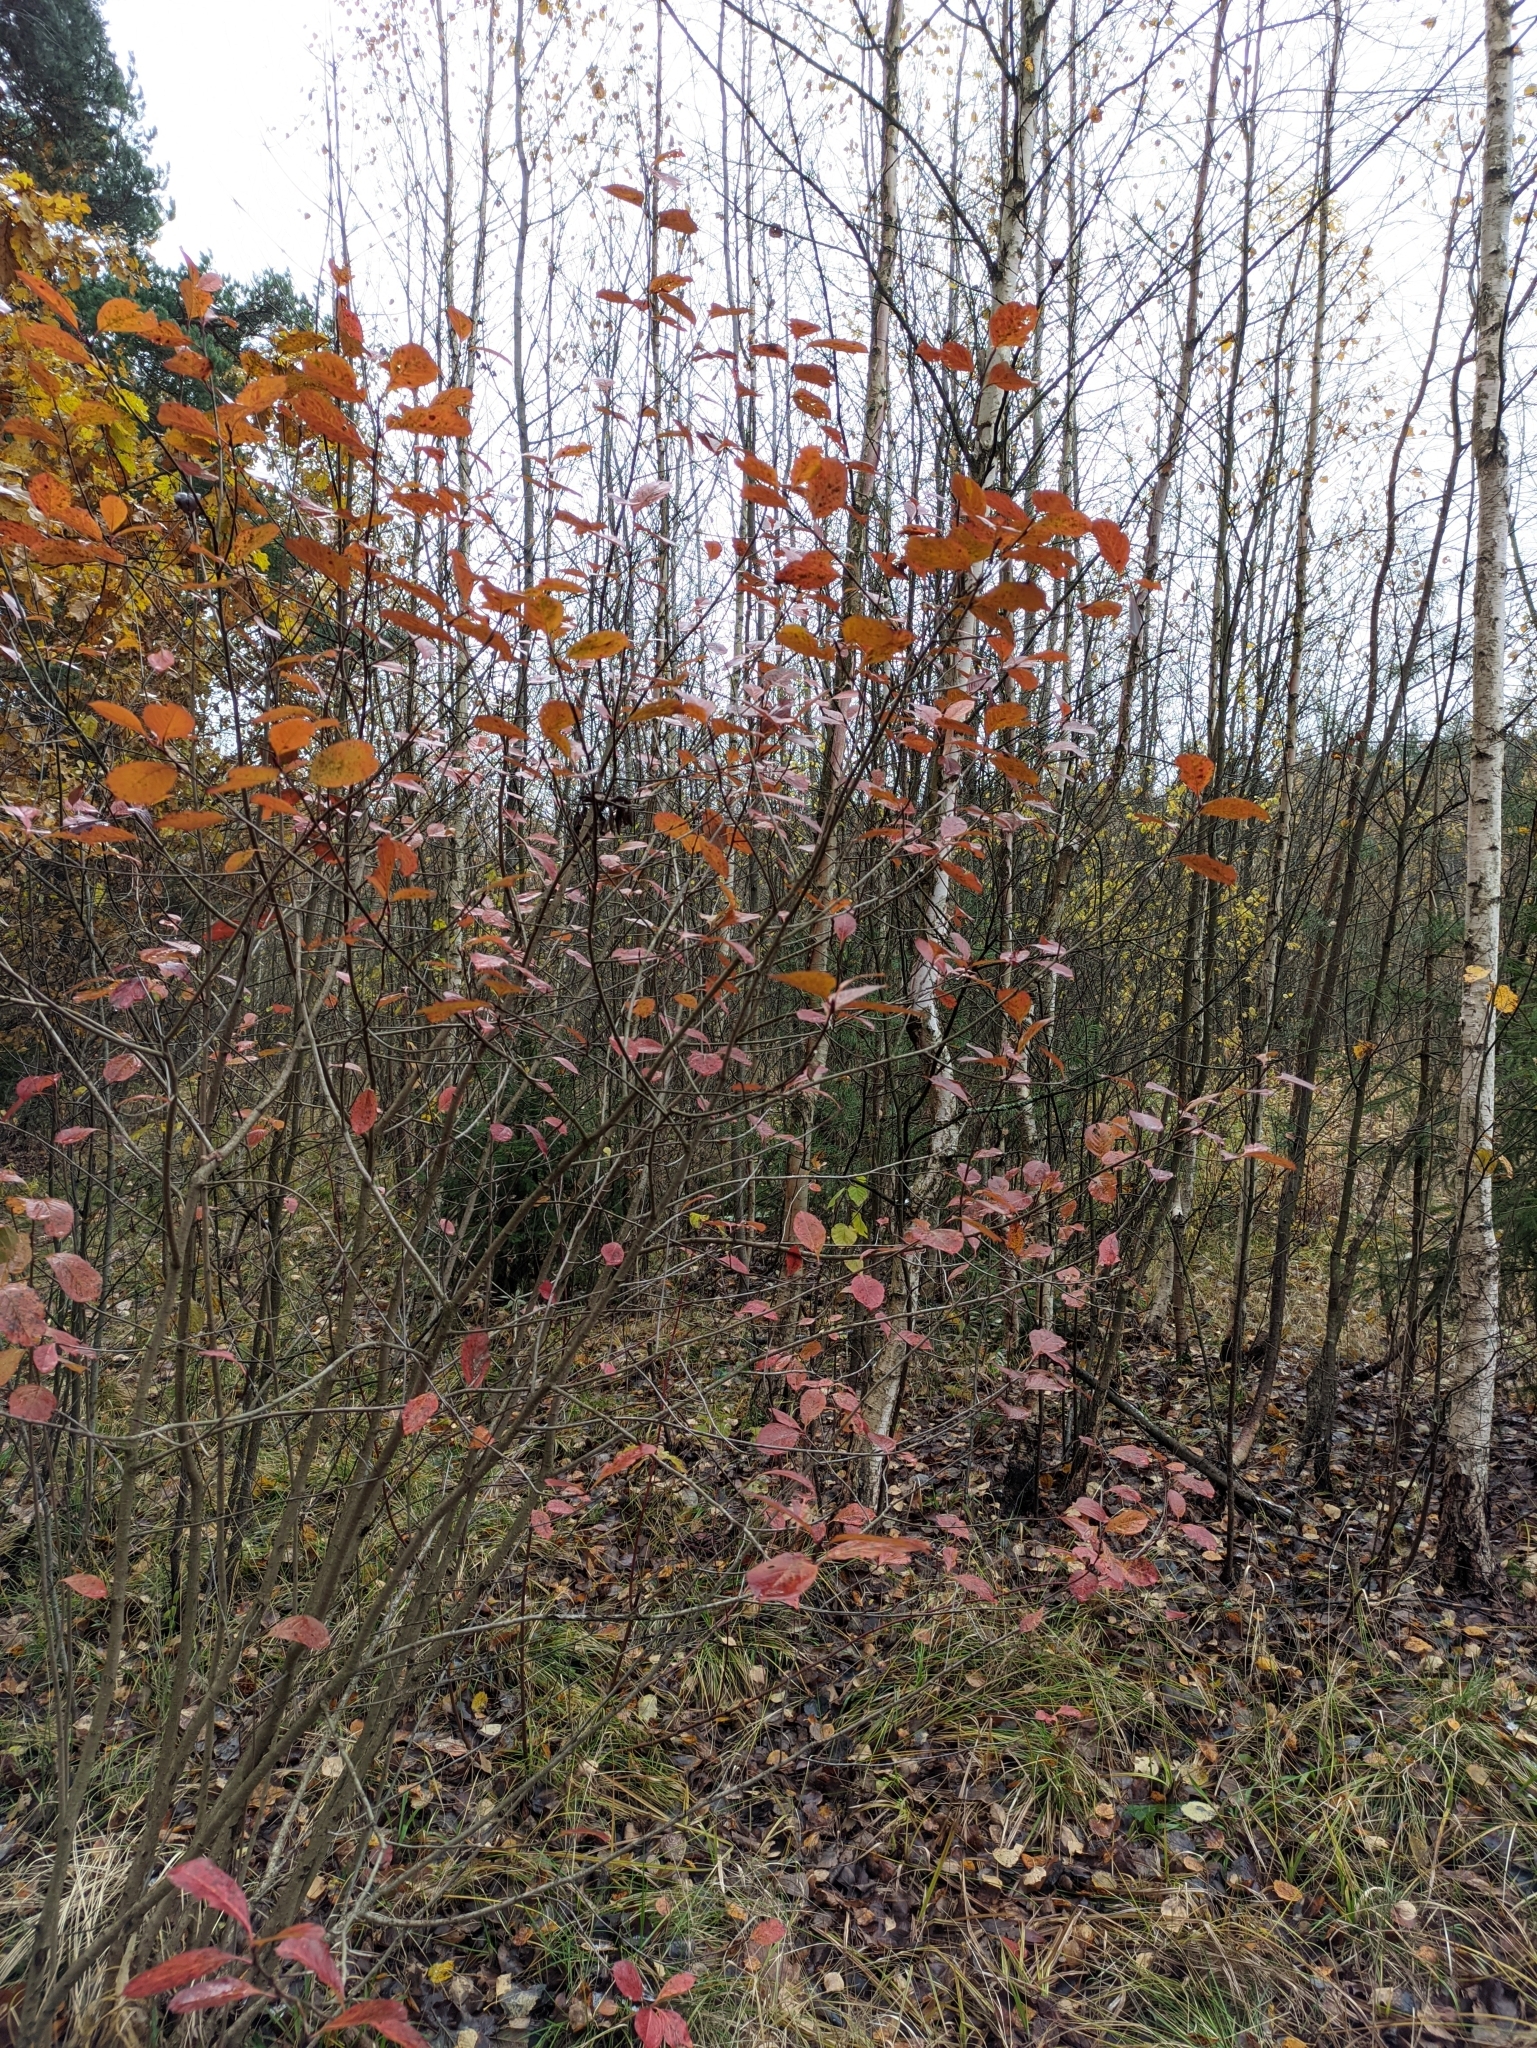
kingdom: Plantae
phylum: Tracheophyta
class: Magnoliopsida
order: Rosales
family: Rosaceae
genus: Sorbaronia
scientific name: Sorbaronia arsenii
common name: Arsène's mountain-ash
